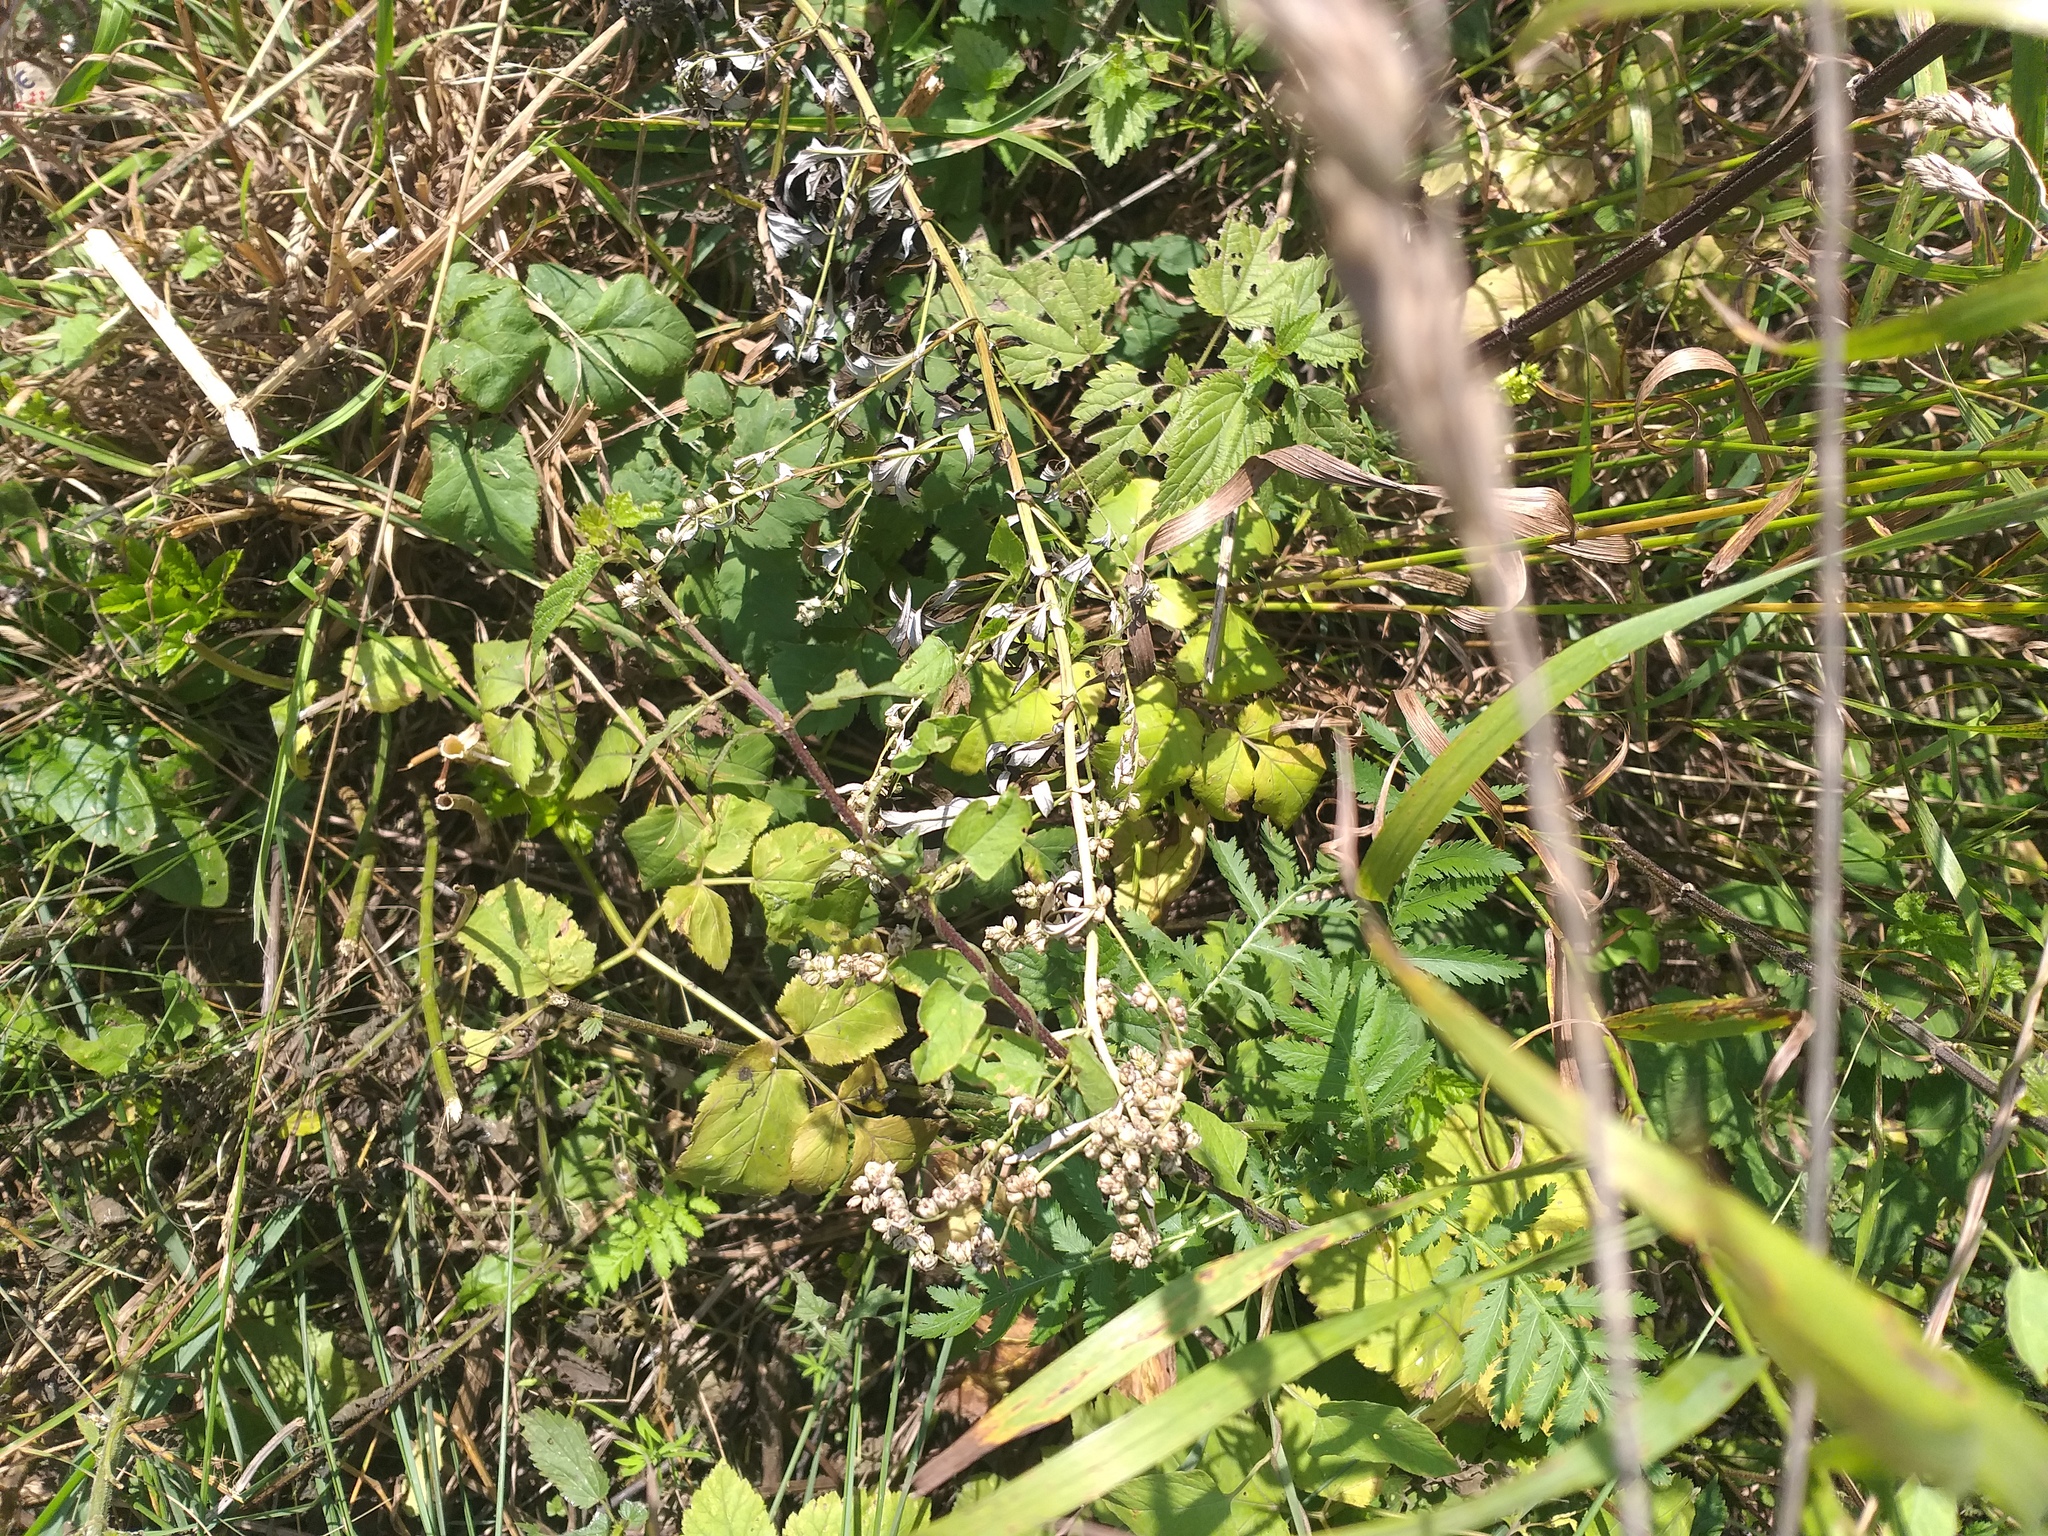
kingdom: Plantae
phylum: Tracheophyta
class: Magnoliopsida
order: Asterales
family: Asteraceae
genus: Artemisia
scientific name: Artemisia vulgaris
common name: Mugwort
